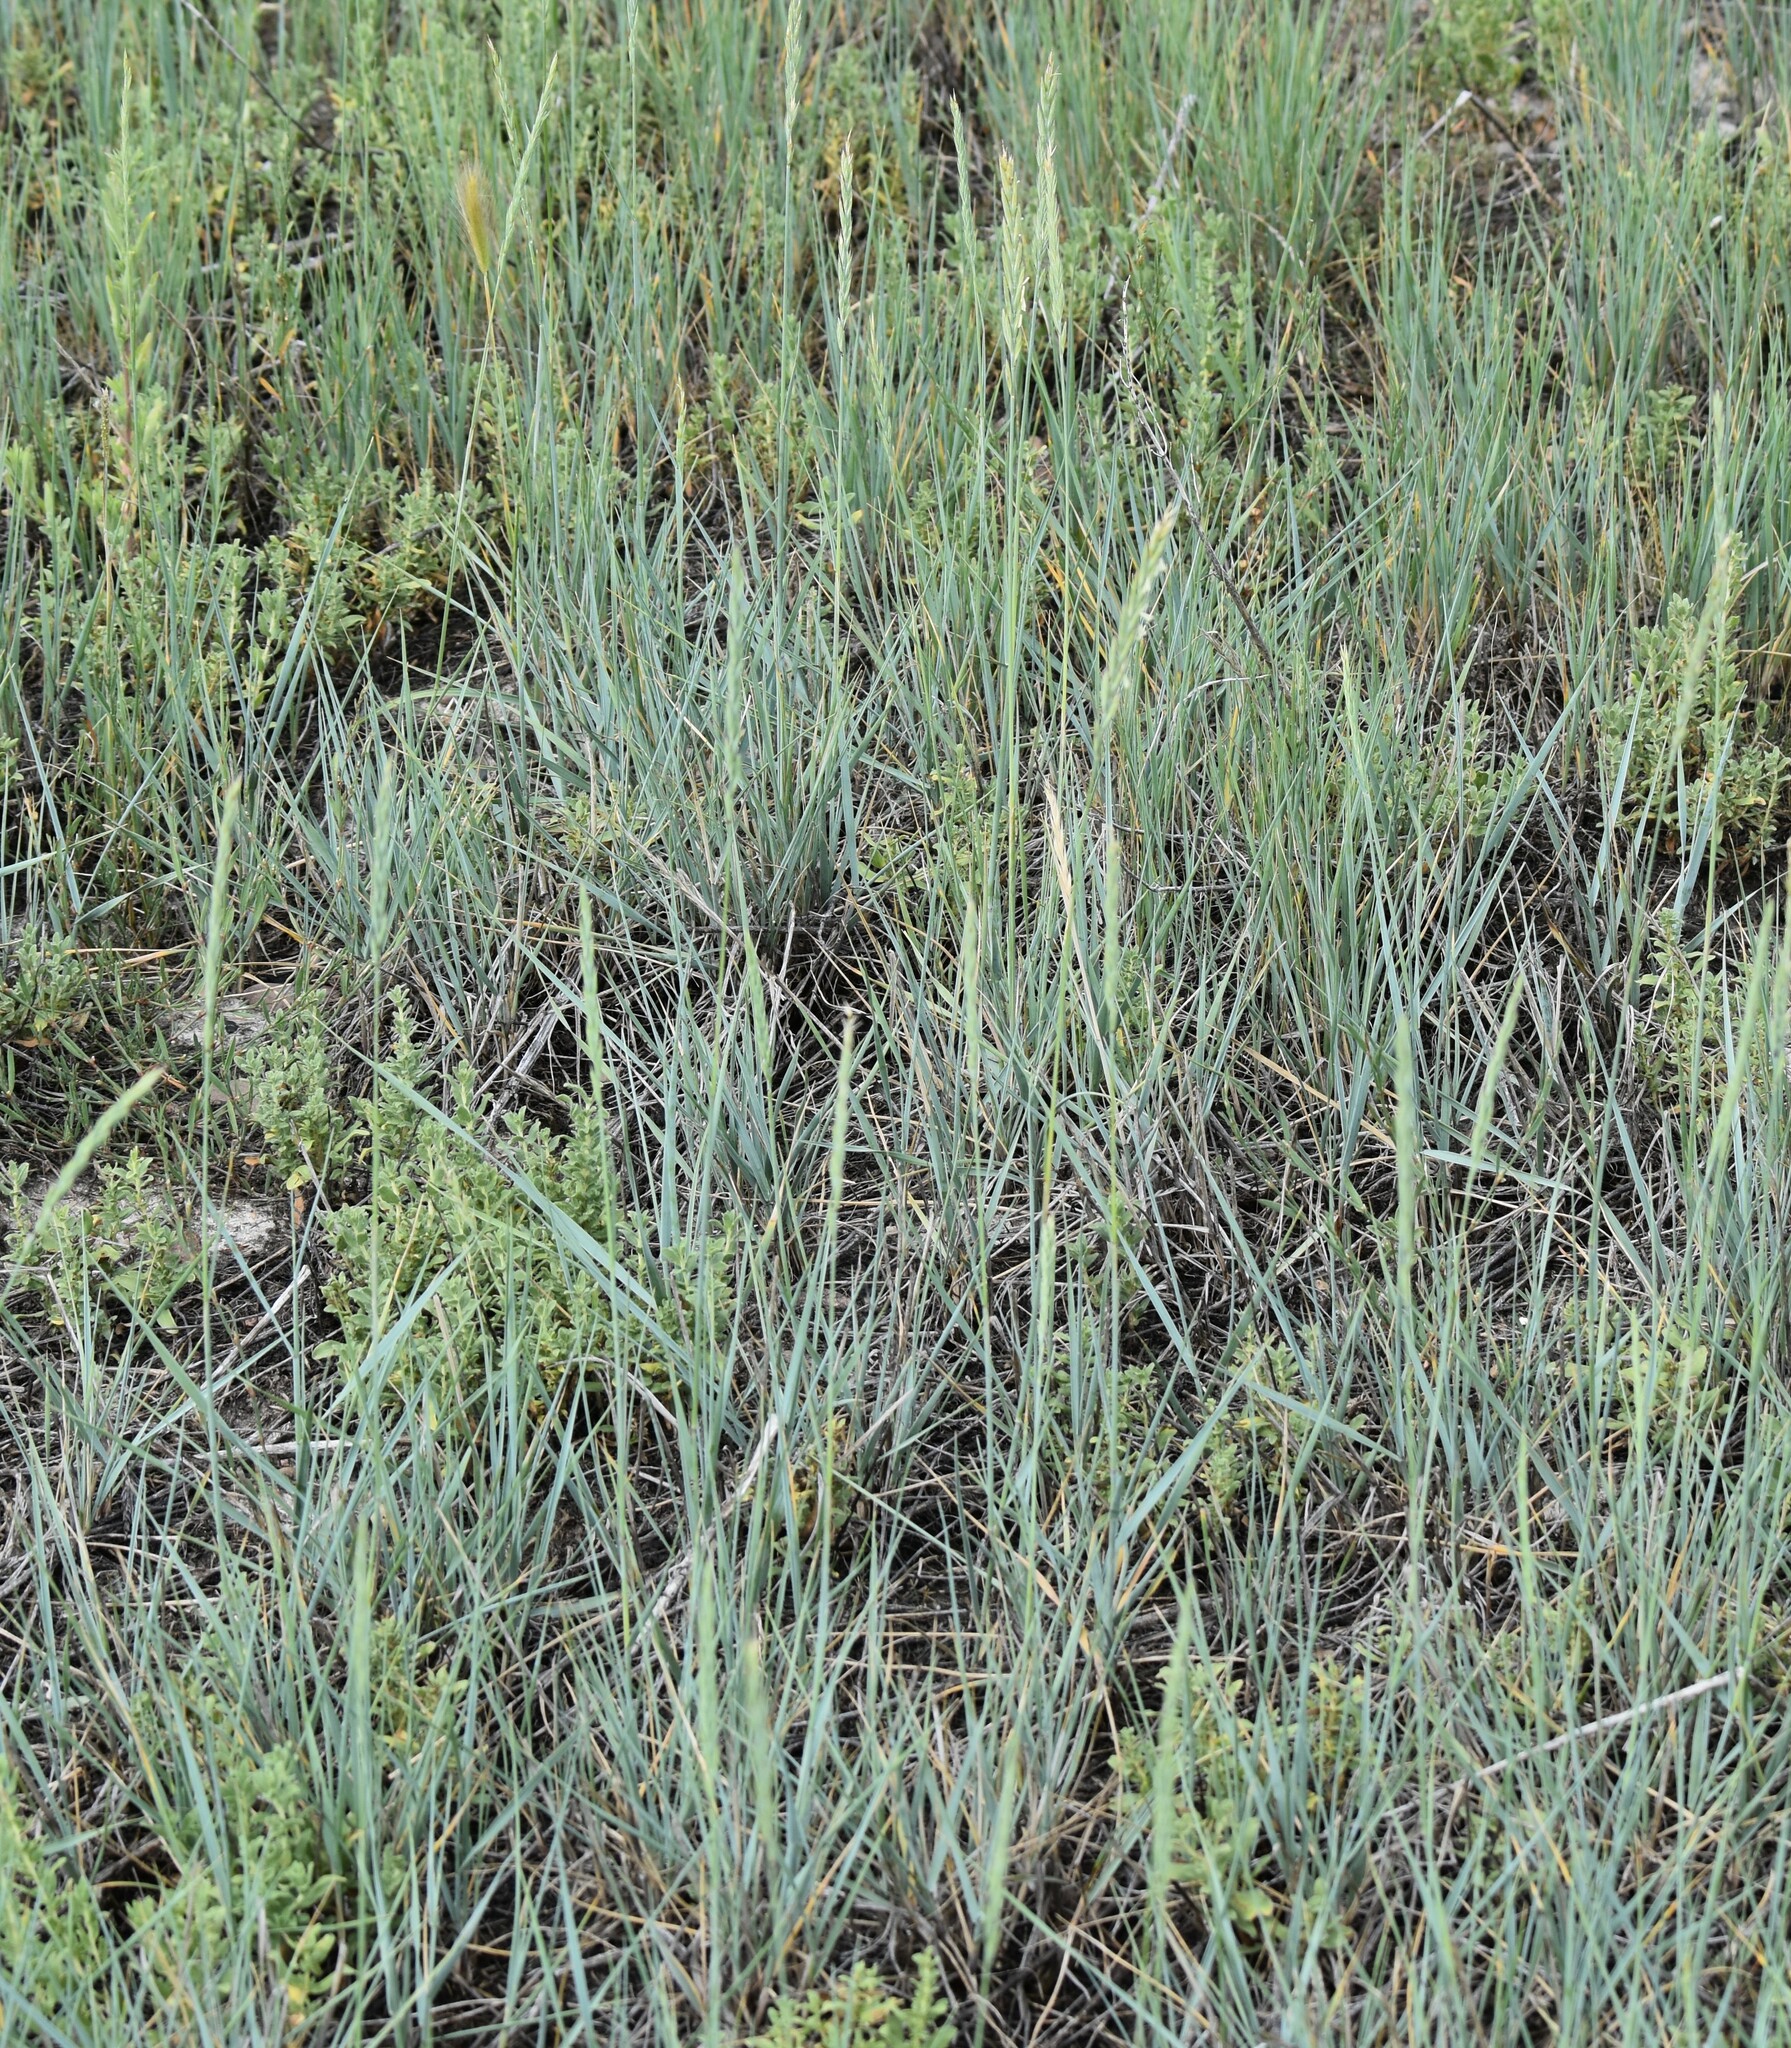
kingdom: Plantae
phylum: Tracheophyta
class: Liliopsida
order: Poales
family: Poaceae
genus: Elymus
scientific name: Elymus smithii
